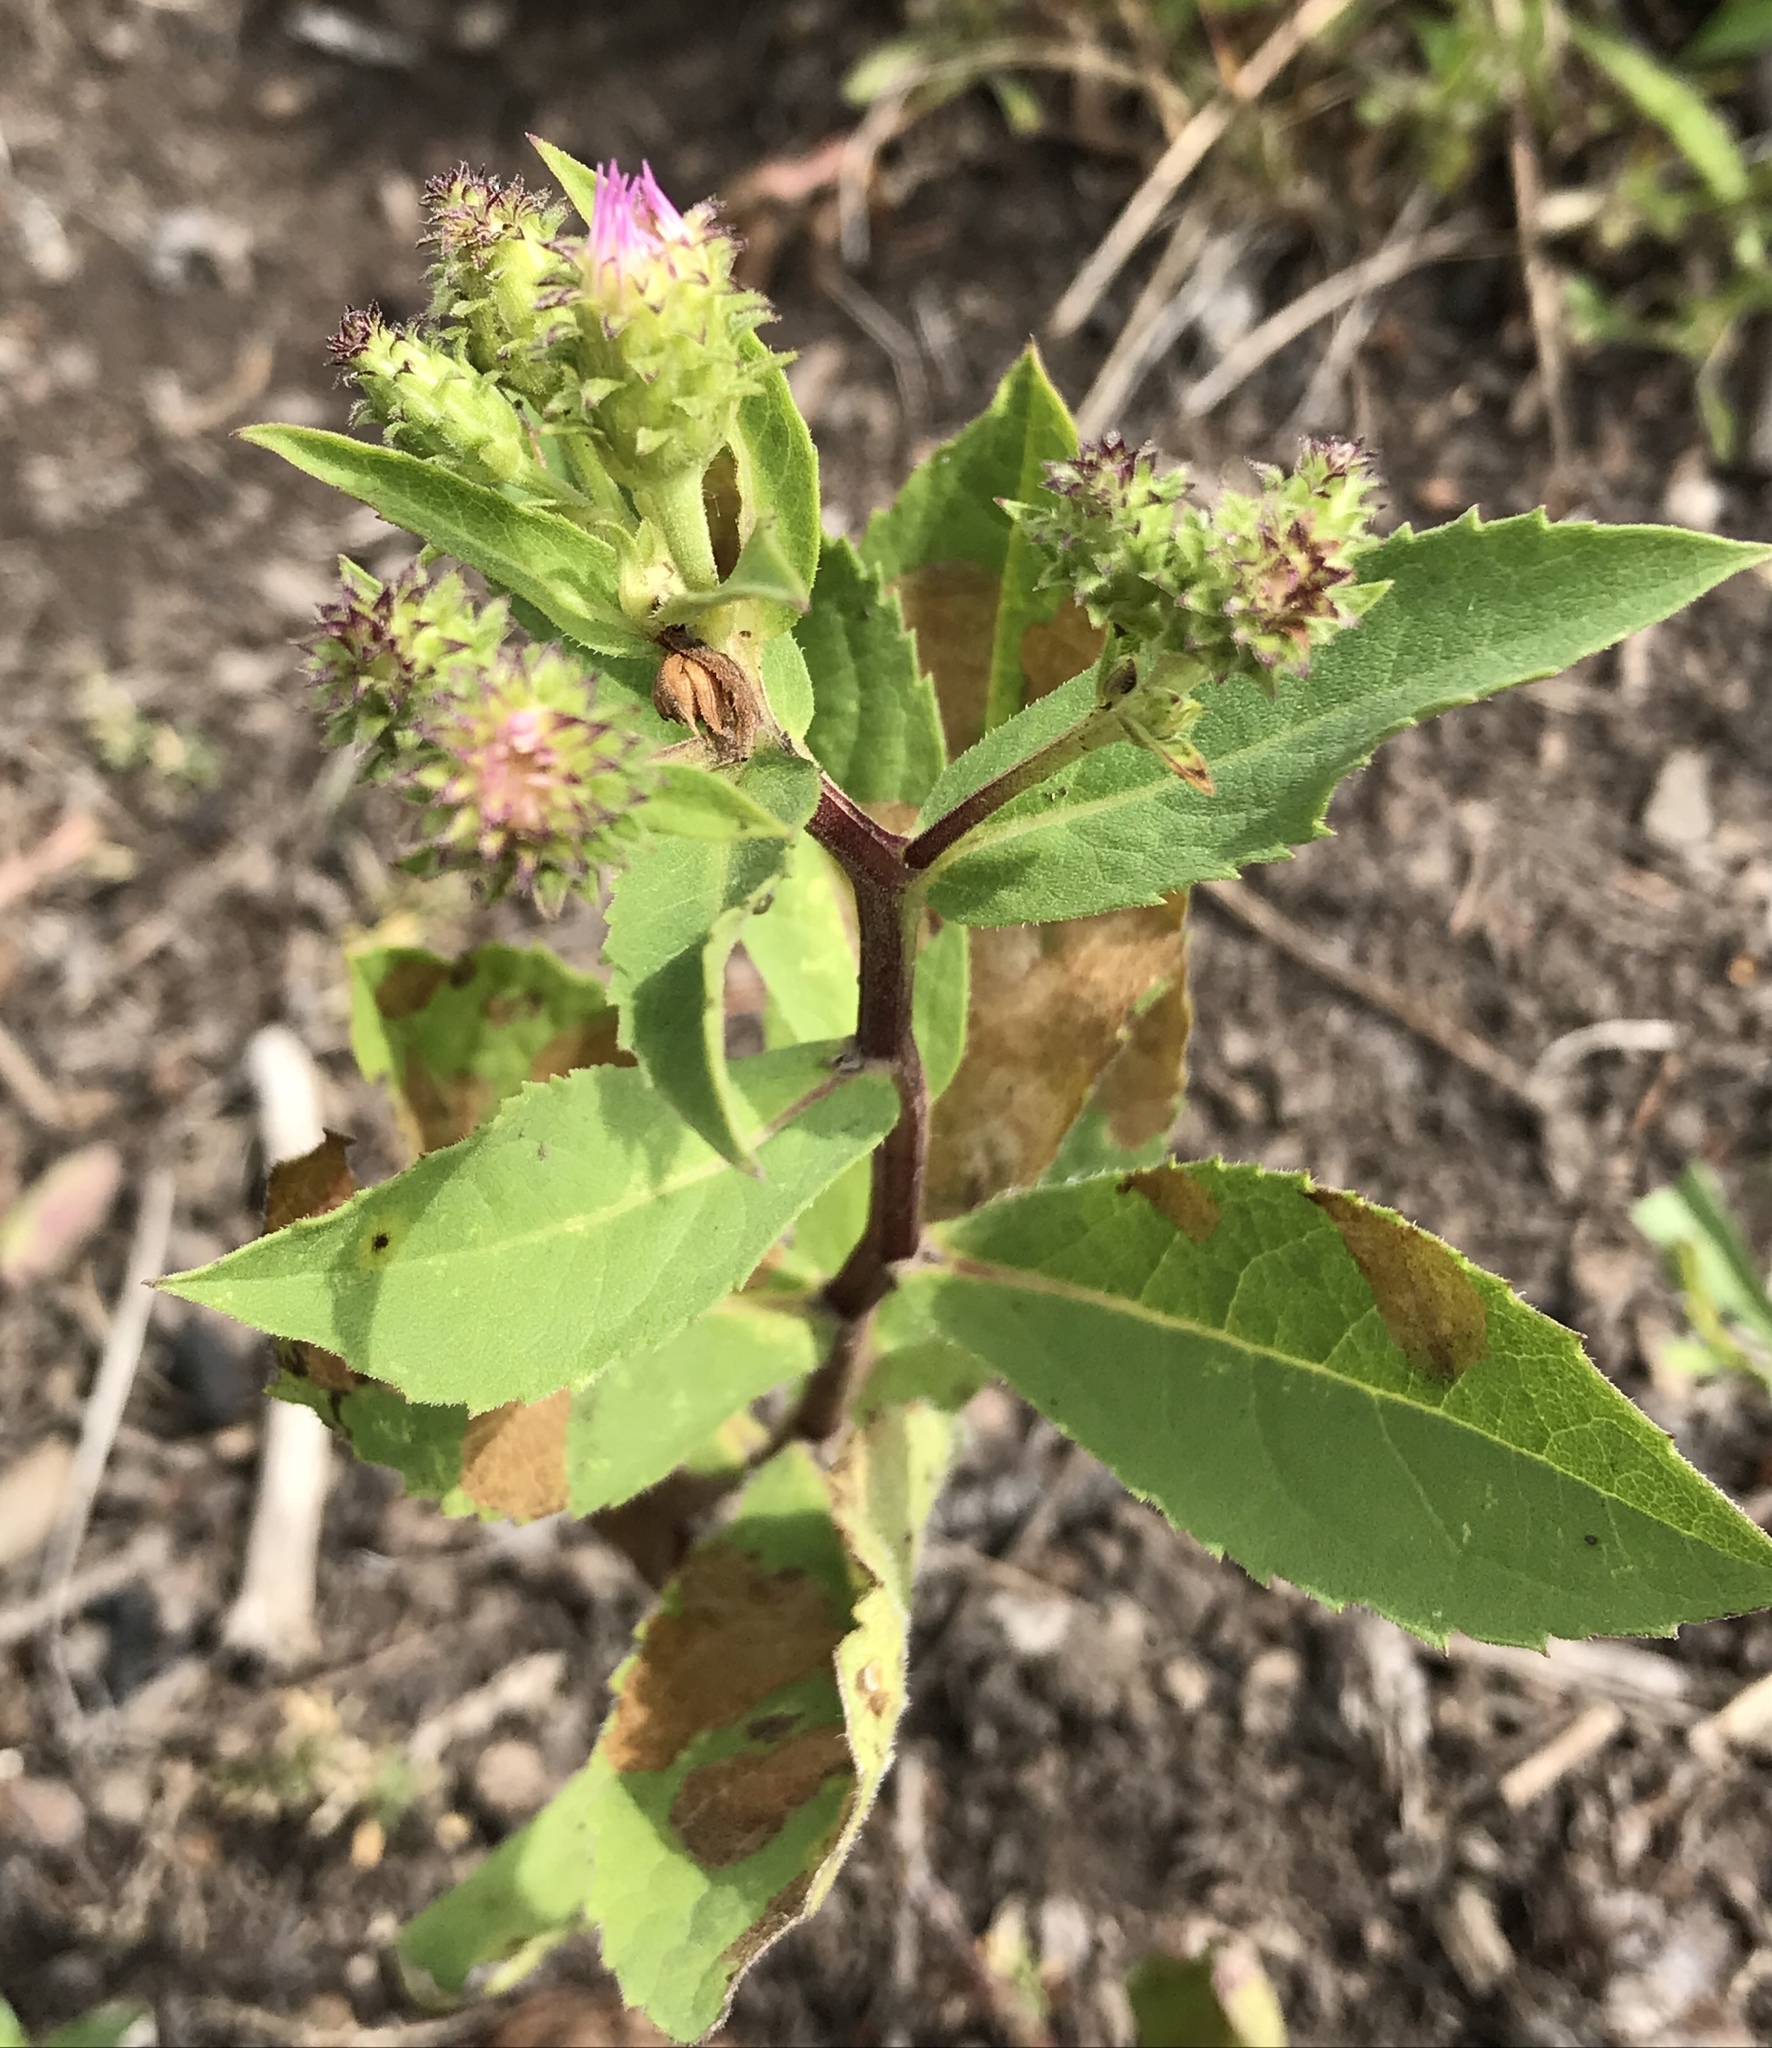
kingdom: Plantae
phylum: Tracheophyta
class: Magnoliopsida
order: Asterales
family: Asteraceae
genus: Eurybia
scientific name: Eurybia conspicua
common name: Showy aster
